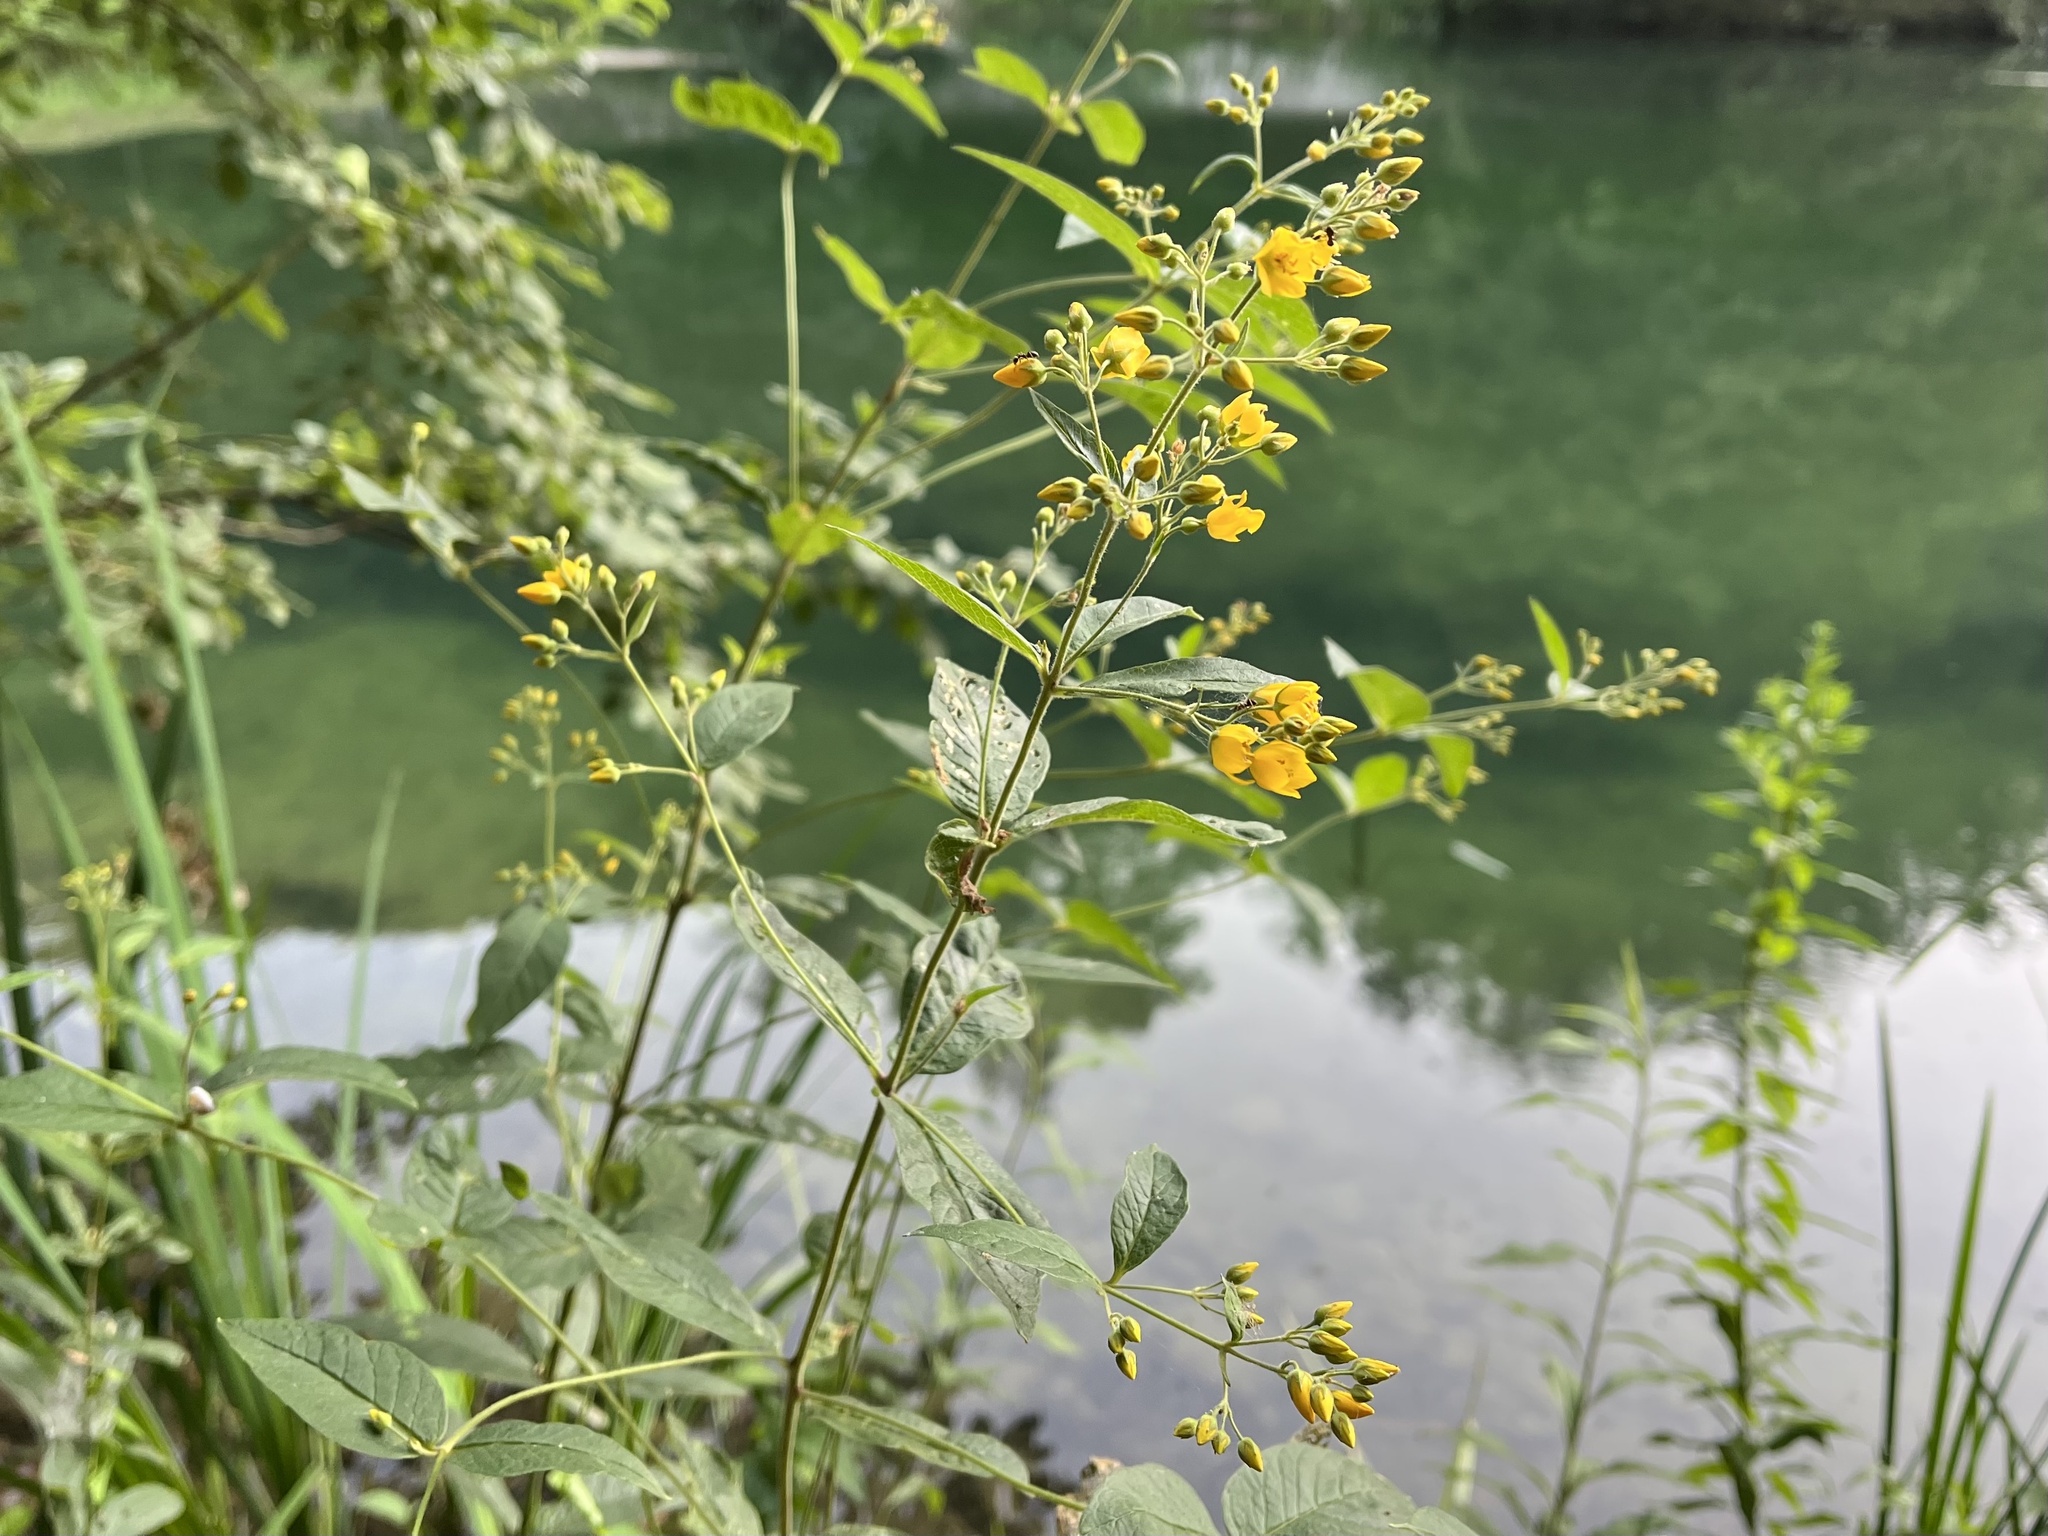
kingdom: Plantae
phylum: Tracheophyta
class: Magnoliopsida
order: Ericales
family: Primulaceae
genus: Lysimachia
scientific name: Lysimachia vulgaris
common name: Yellow loosestrife
